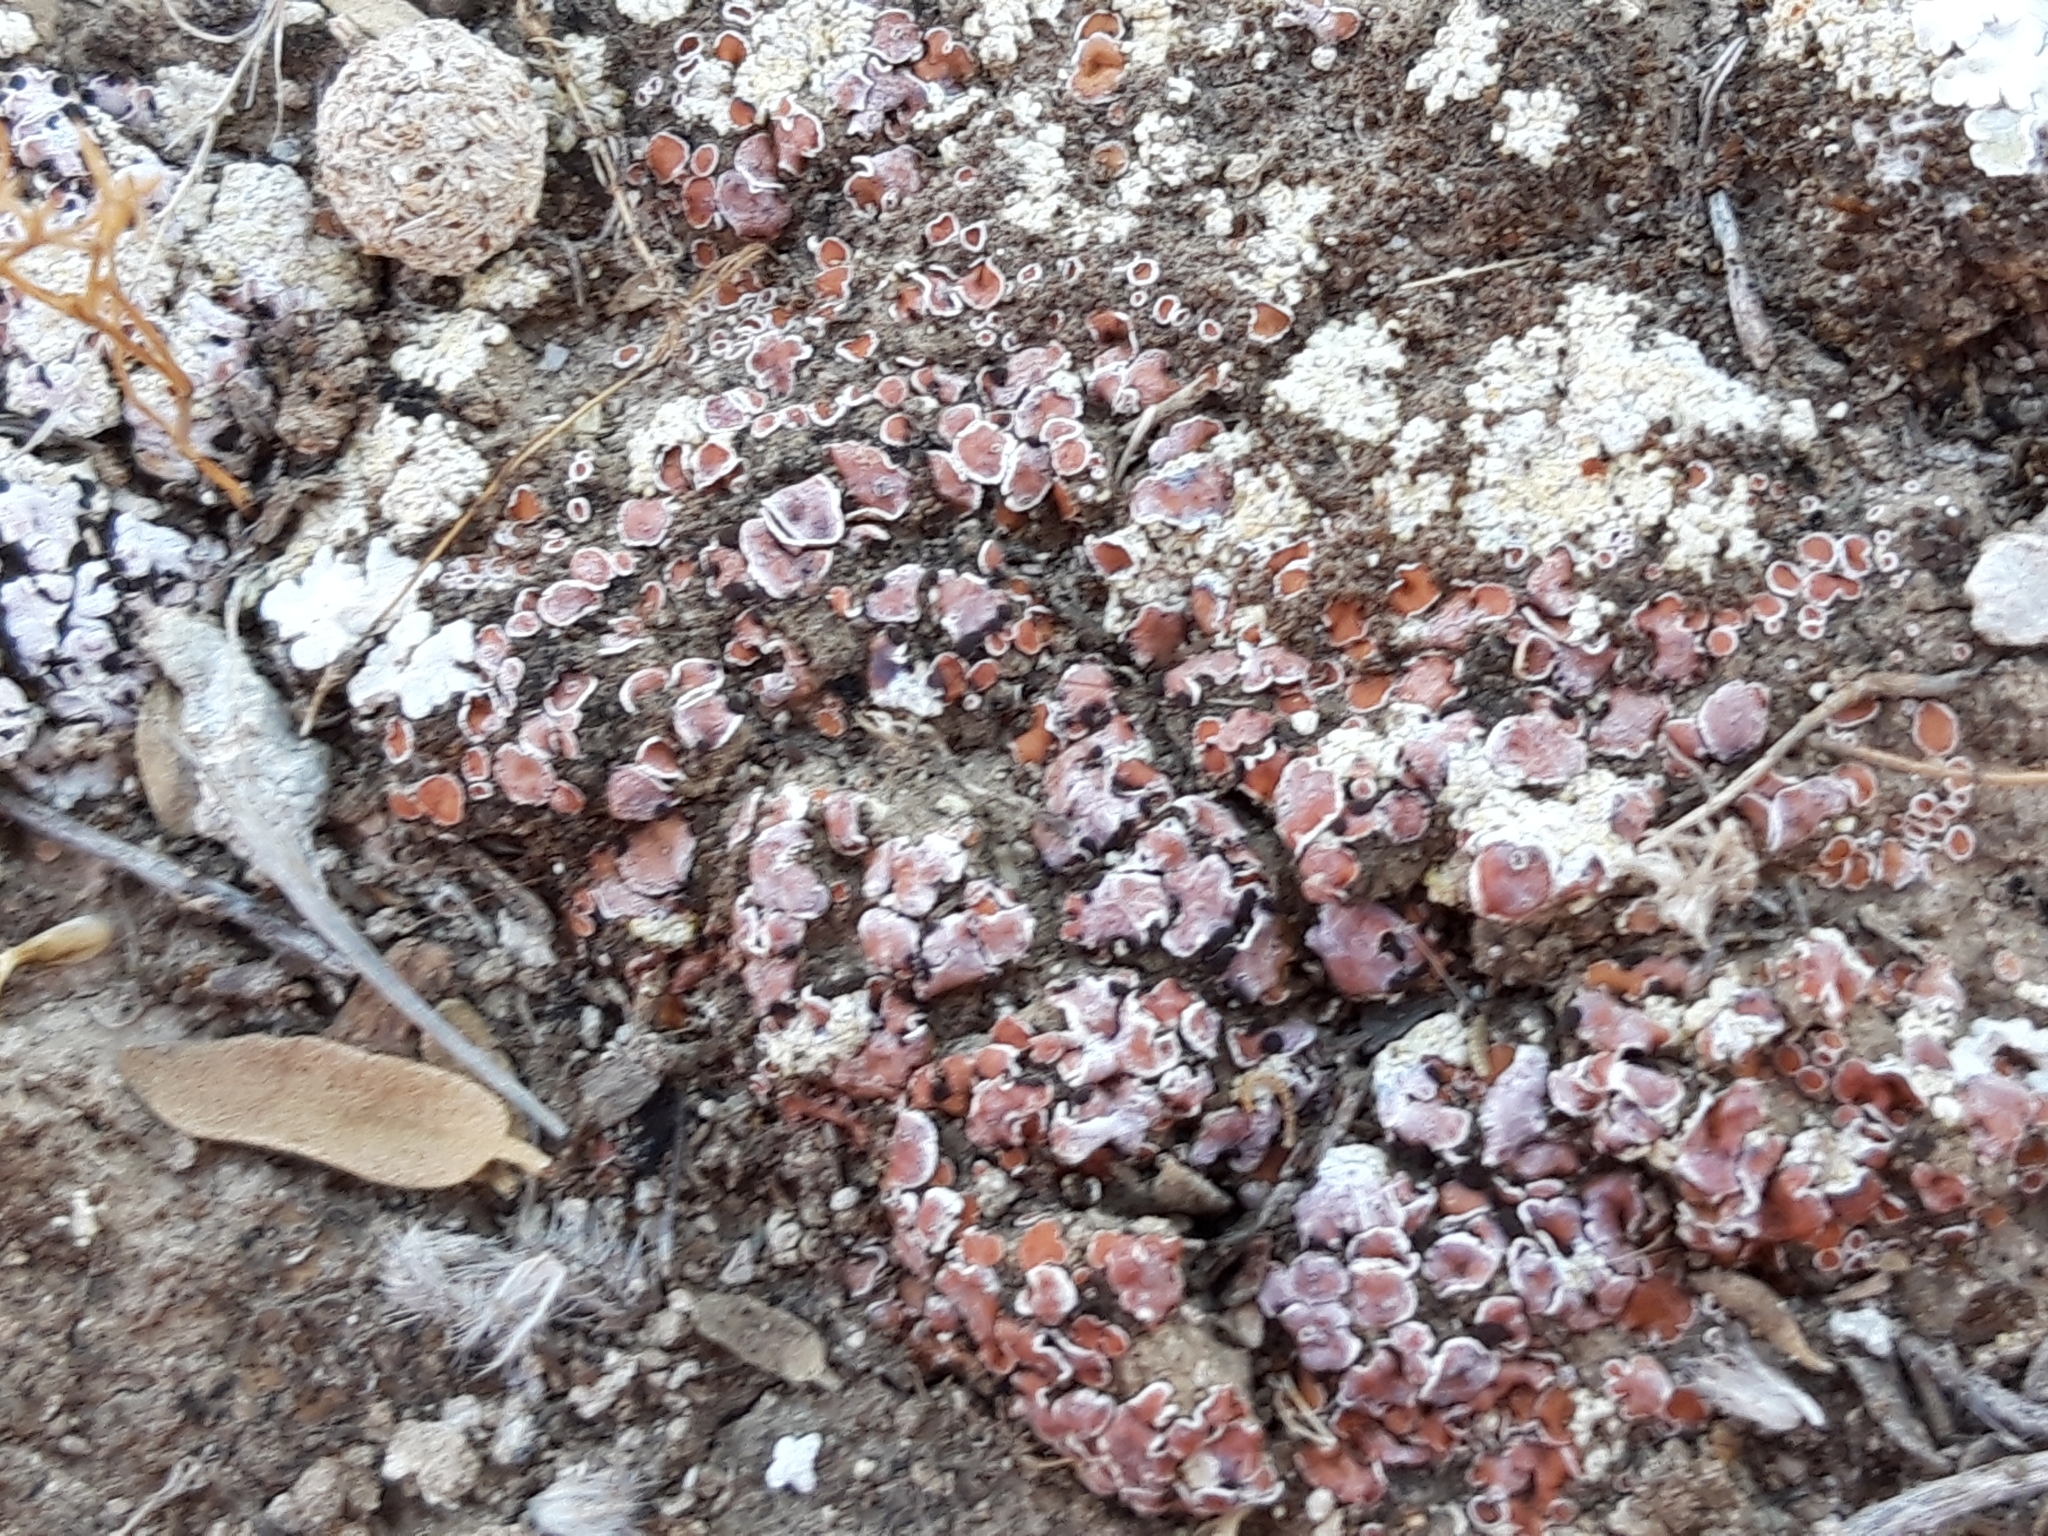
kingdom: Fungi
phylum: Ascomycota
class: Lecanoromycetes
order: Lecanorales
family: Psoraceae
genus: Psora
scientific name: Psora decipiens
